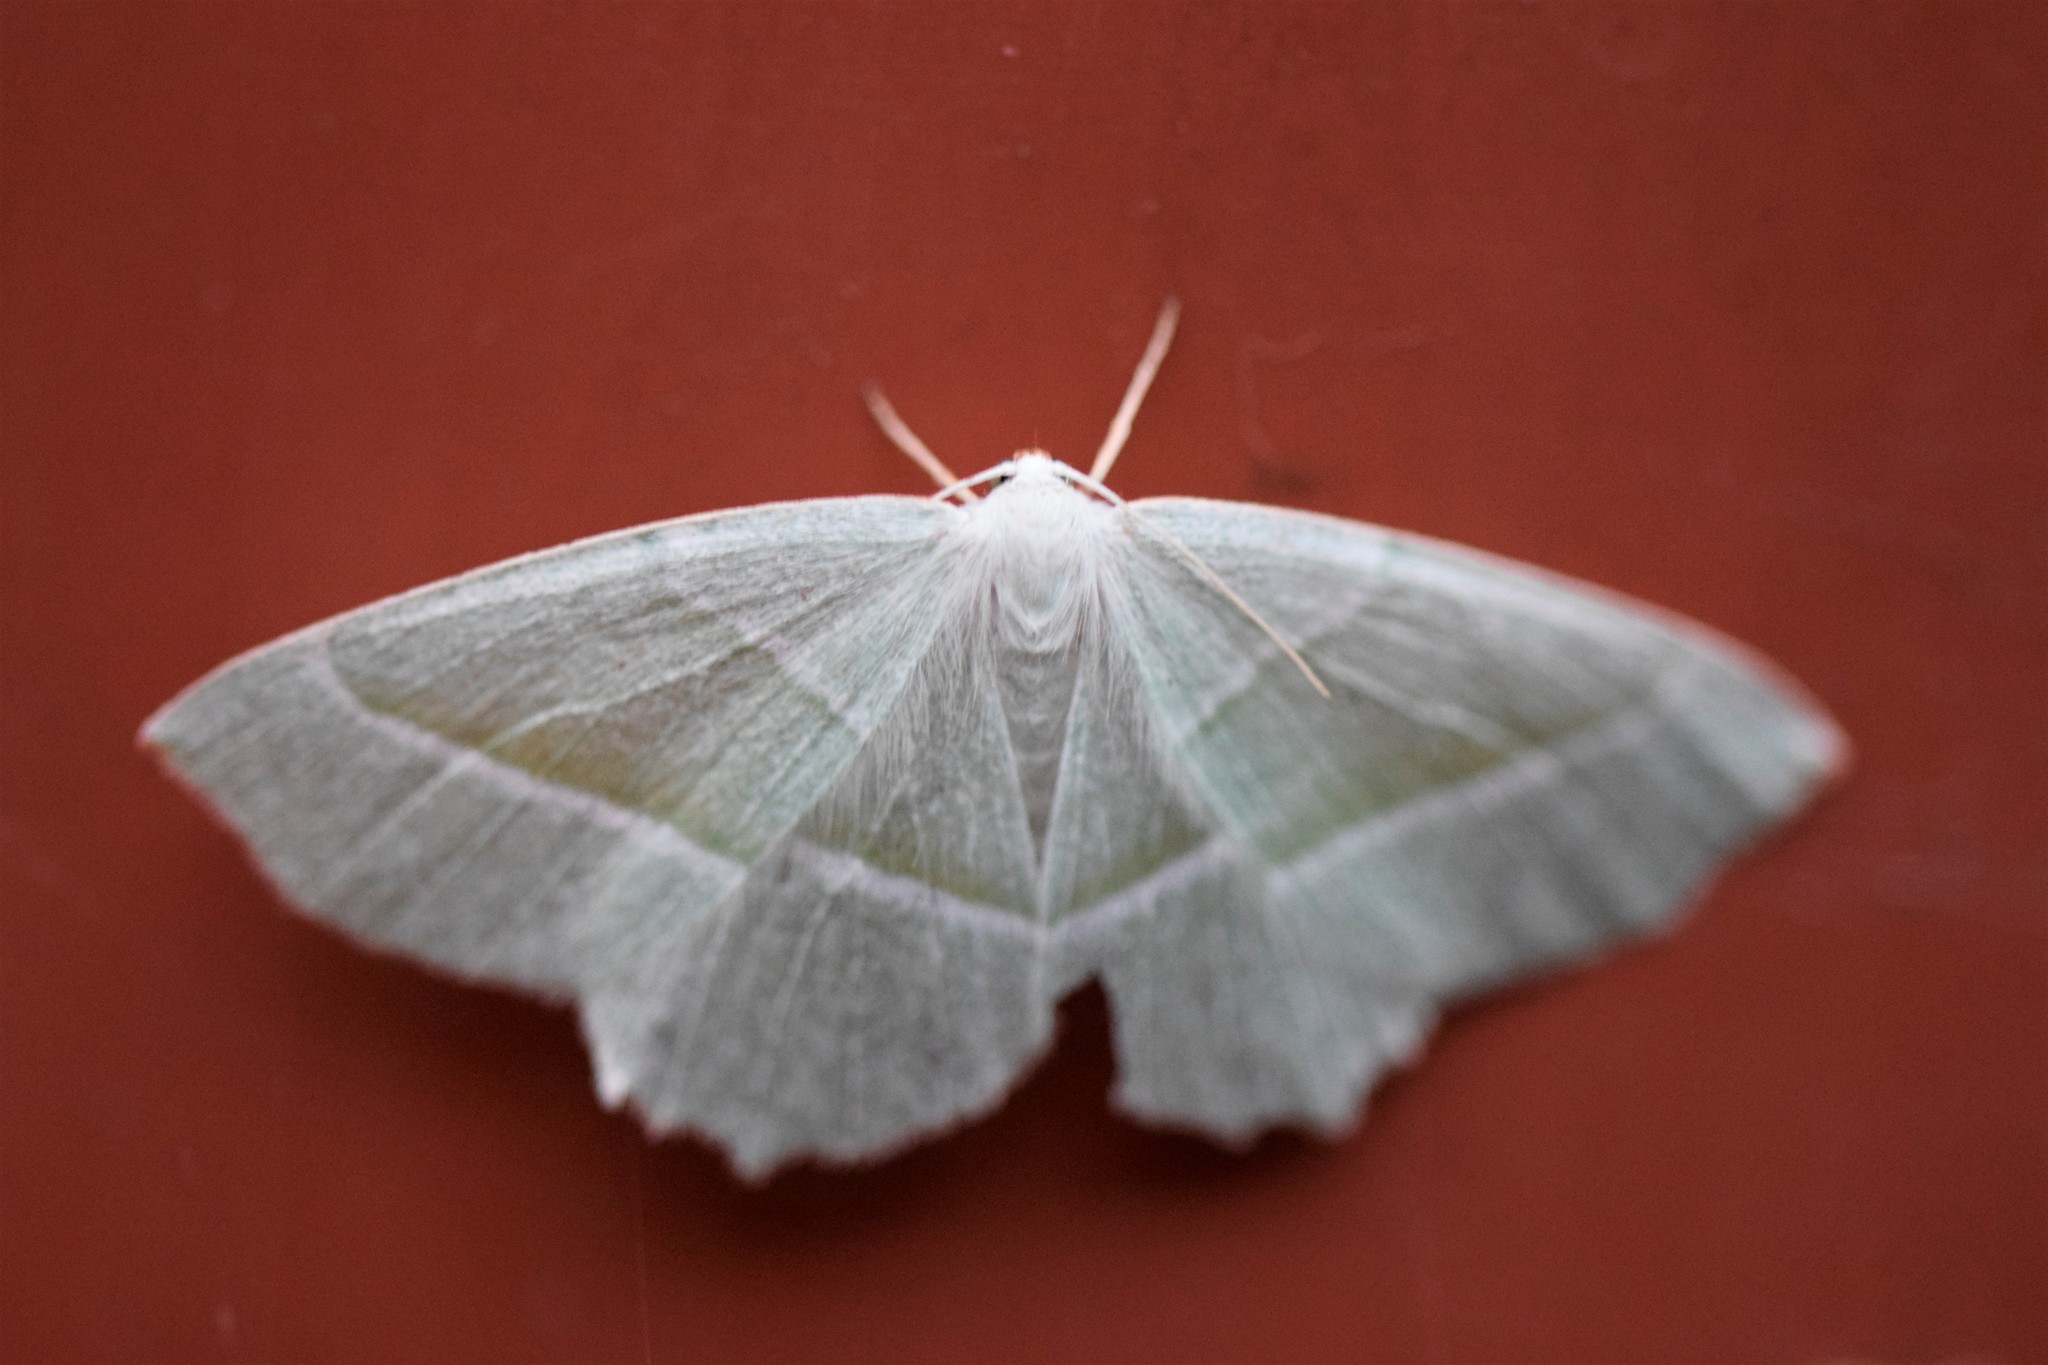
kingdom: Animalia
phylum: Arthropoda
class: Insecta
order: Lepidoptera
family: Geometridae
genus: Campaea
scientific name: Campaea margaritaria
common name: Light emerald
